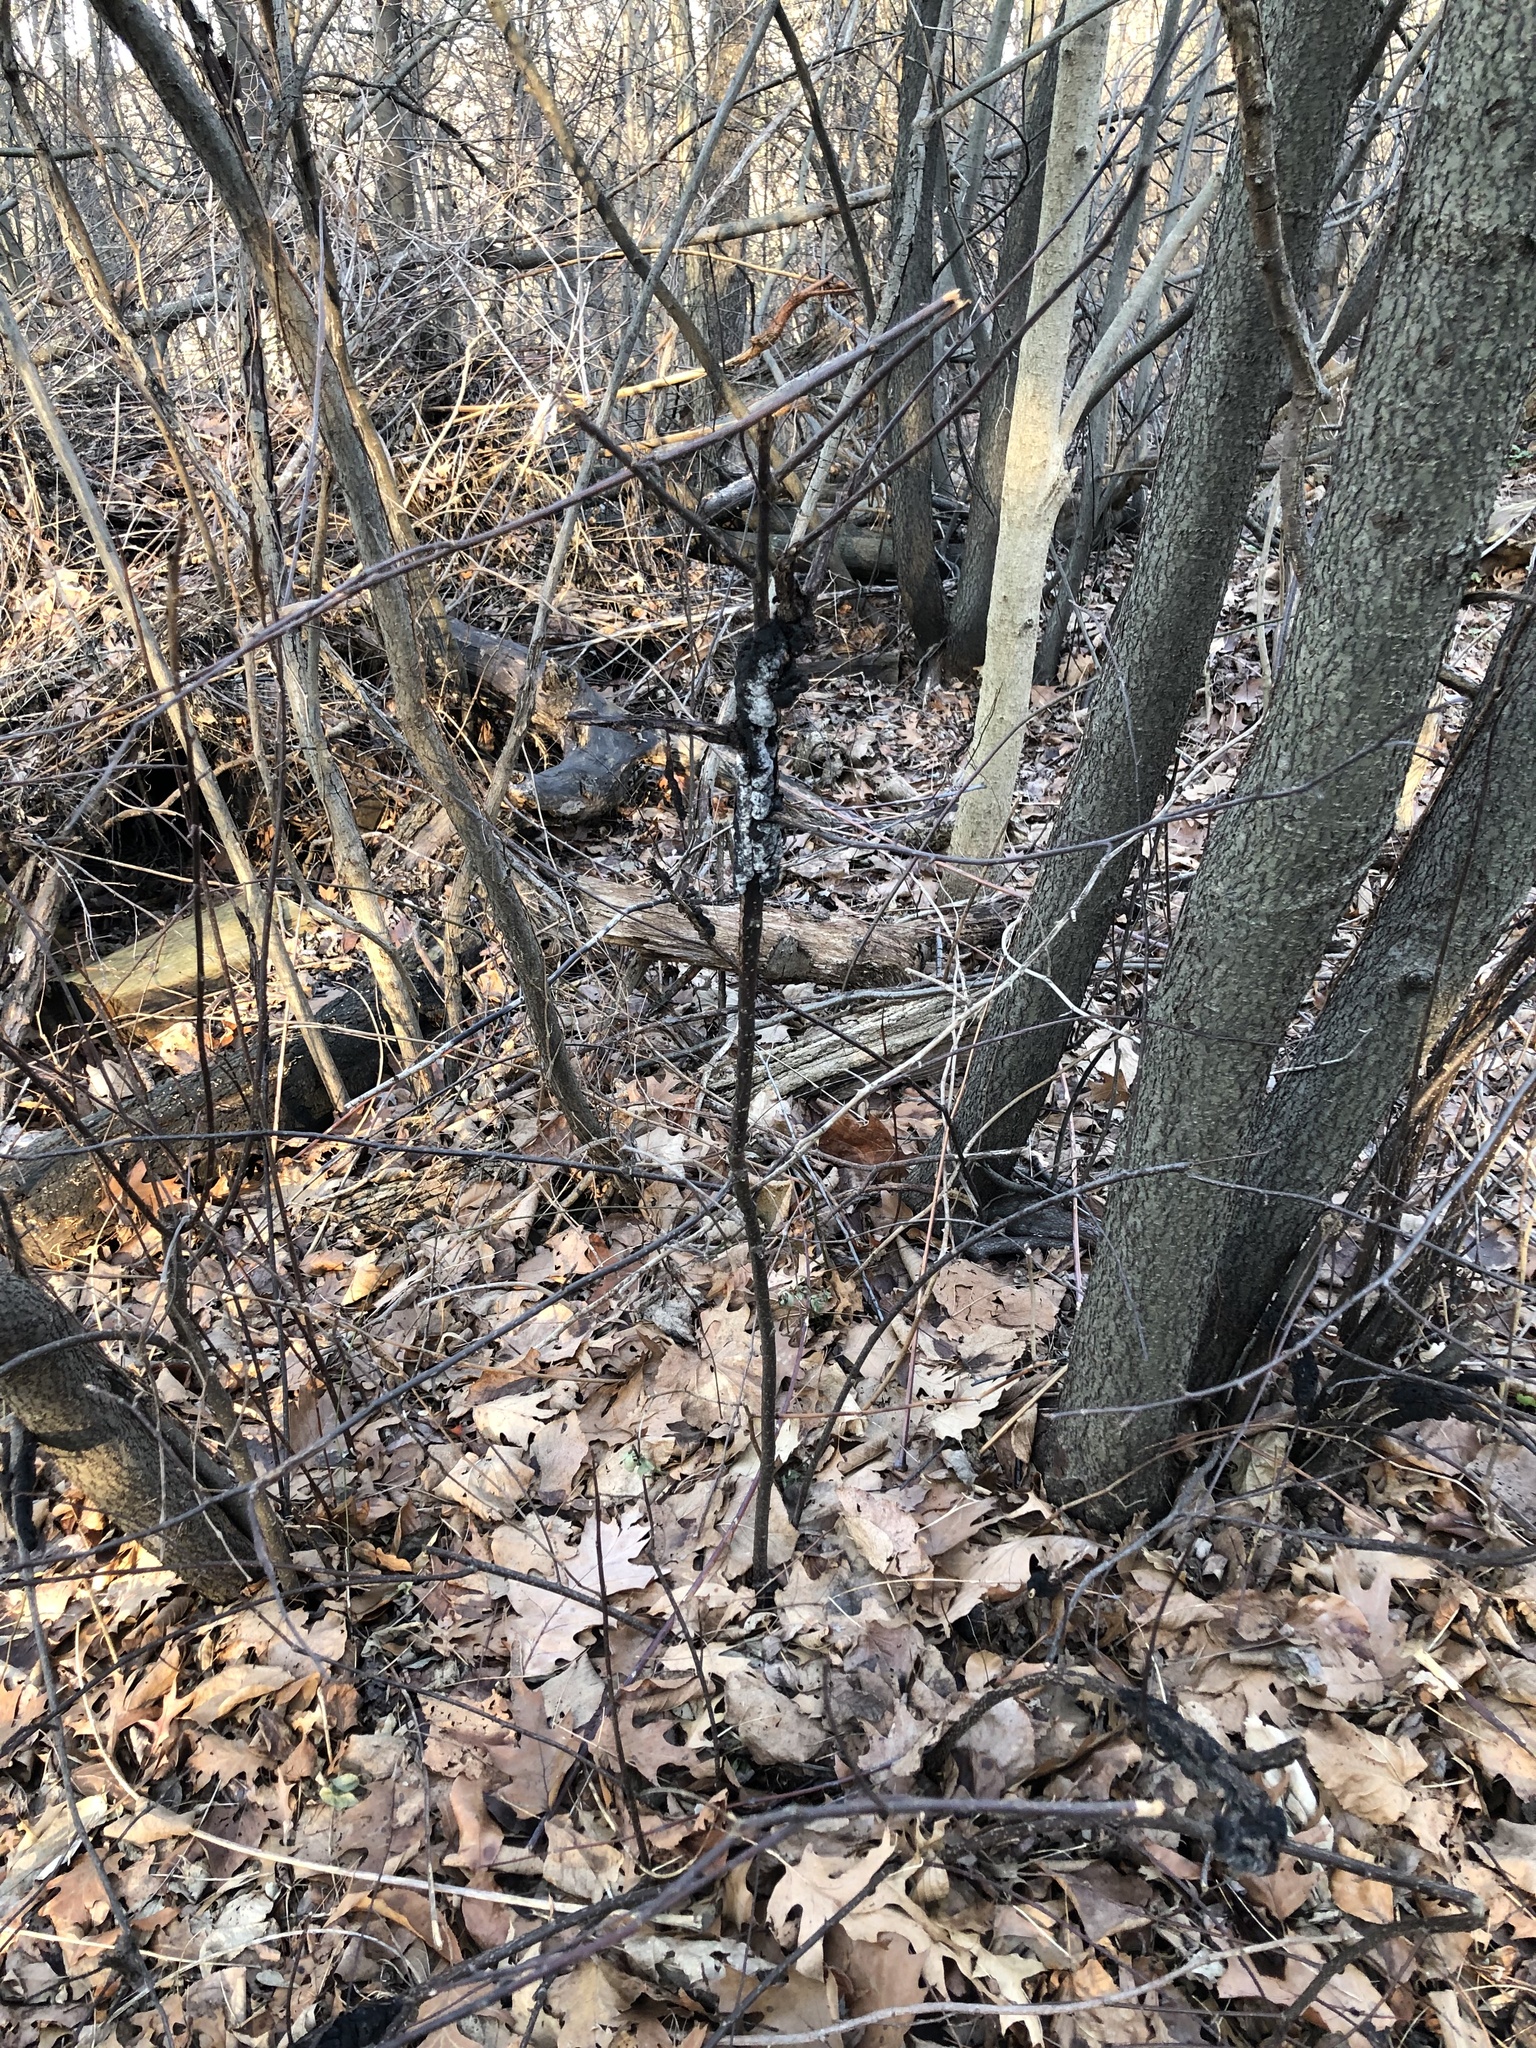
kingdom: Fungi
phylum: Ascomycota
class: Dothideomycetes
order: Venturiales
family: Venturiaceae
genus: Apiosporina
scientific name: Apiosporina morbosa
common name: Black knot
